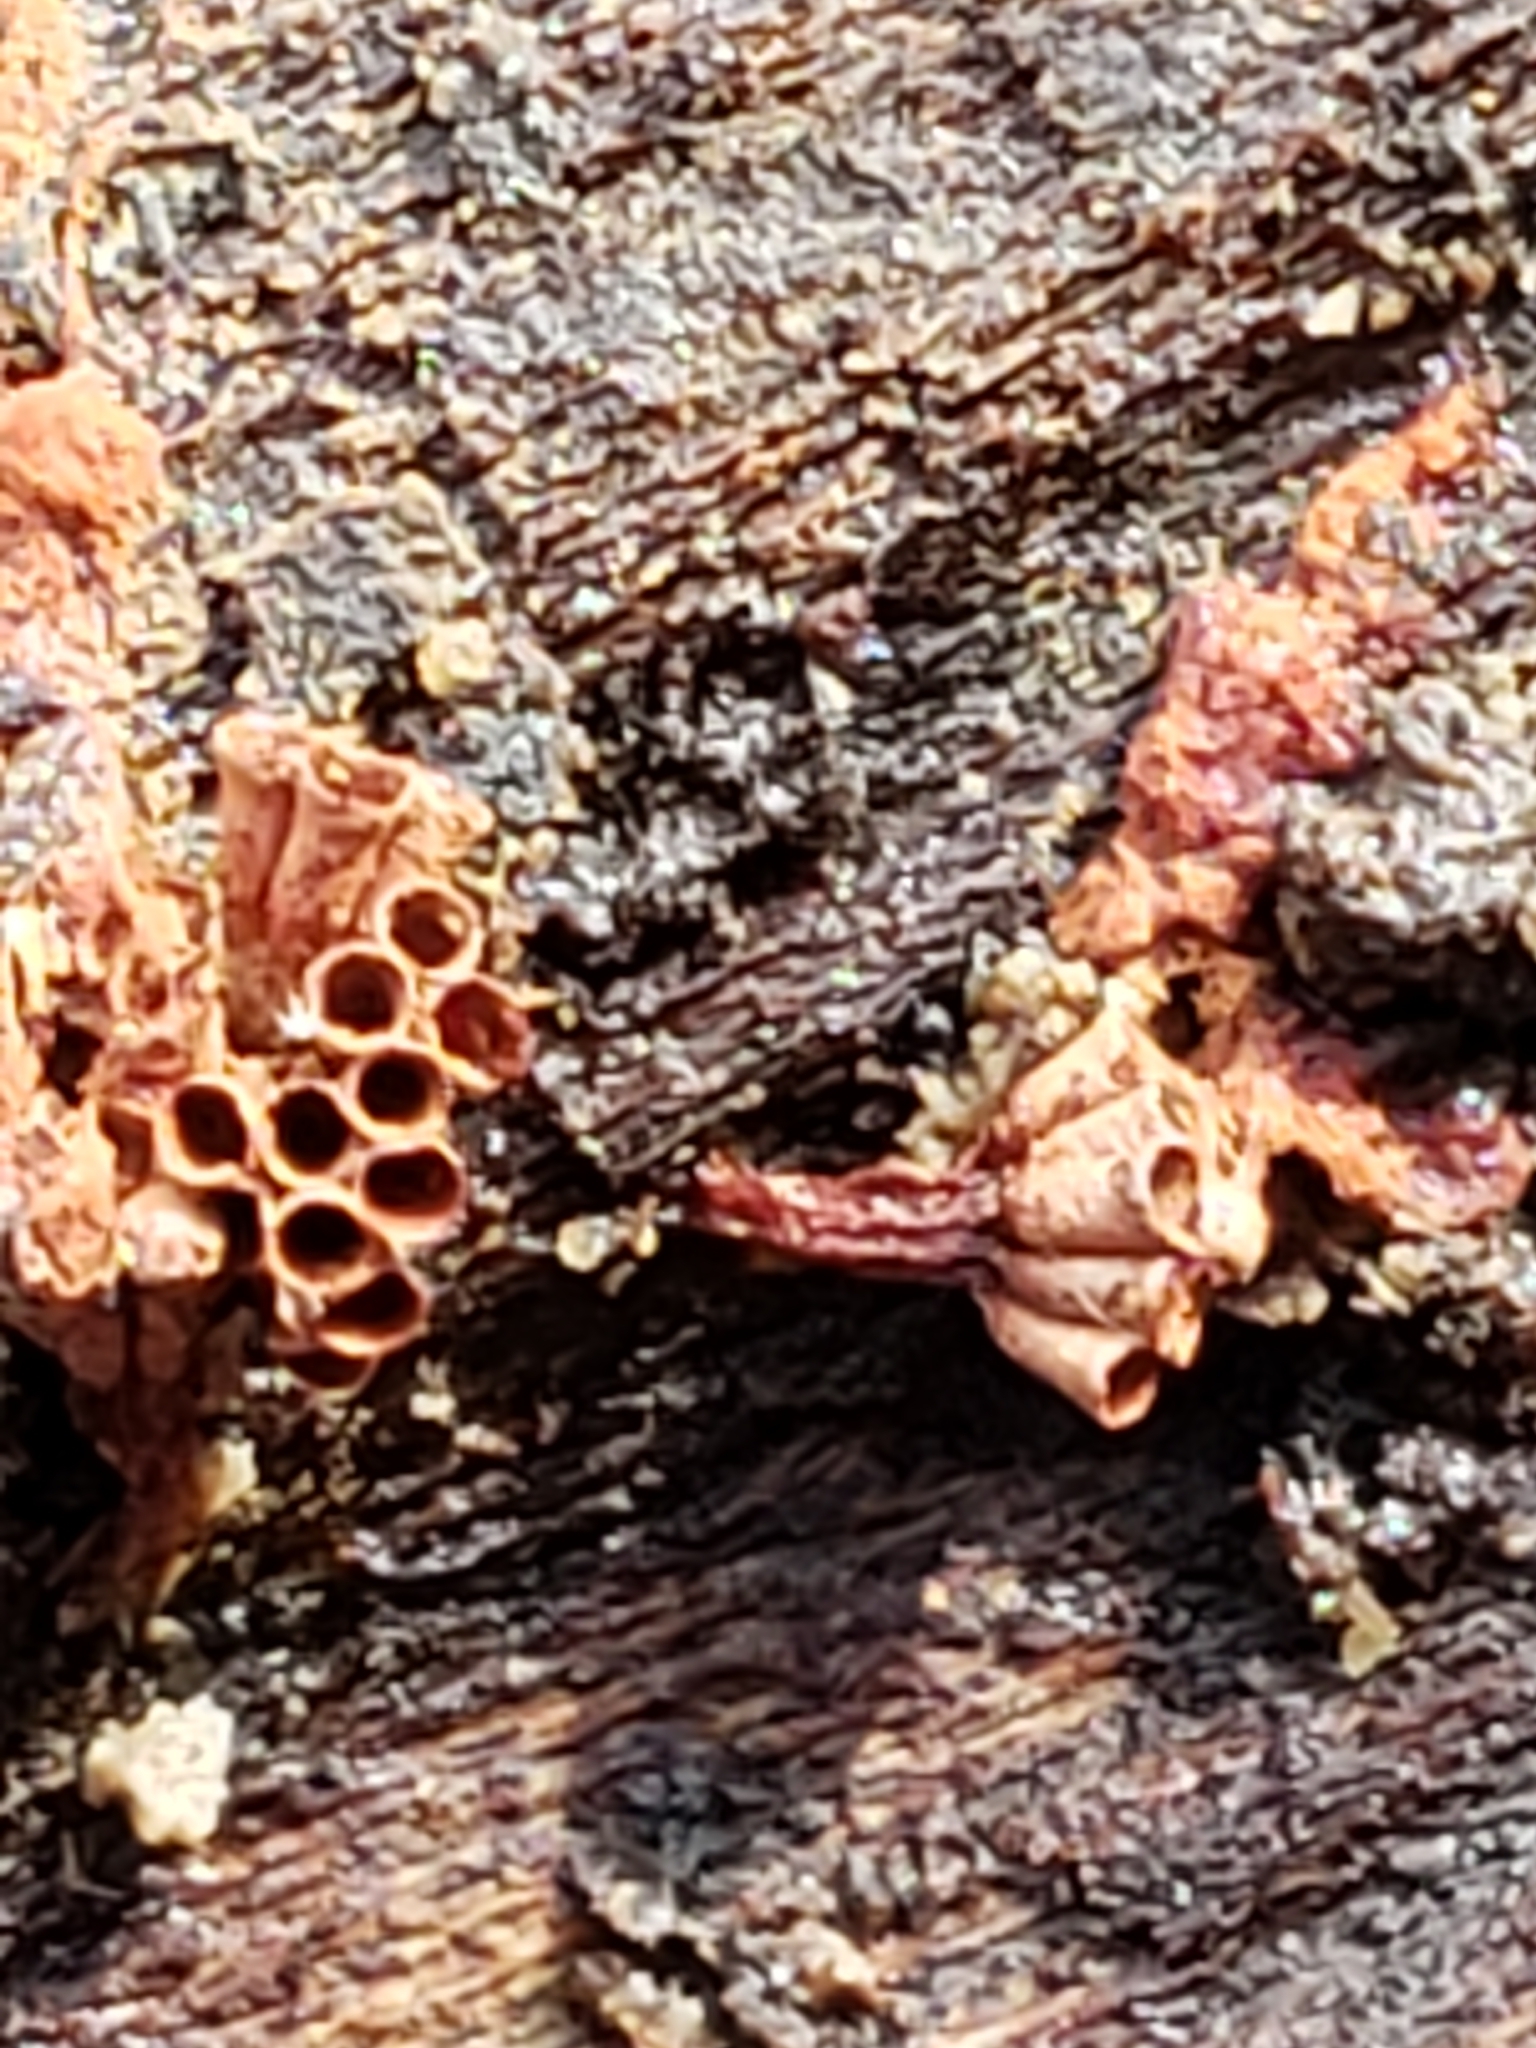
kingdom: Protozoa
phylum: Mycetozoa
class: Myxomycetes
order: Trichiales
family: Trichiaceae
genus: Metatrichia
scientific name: Metatrichia vesparia
